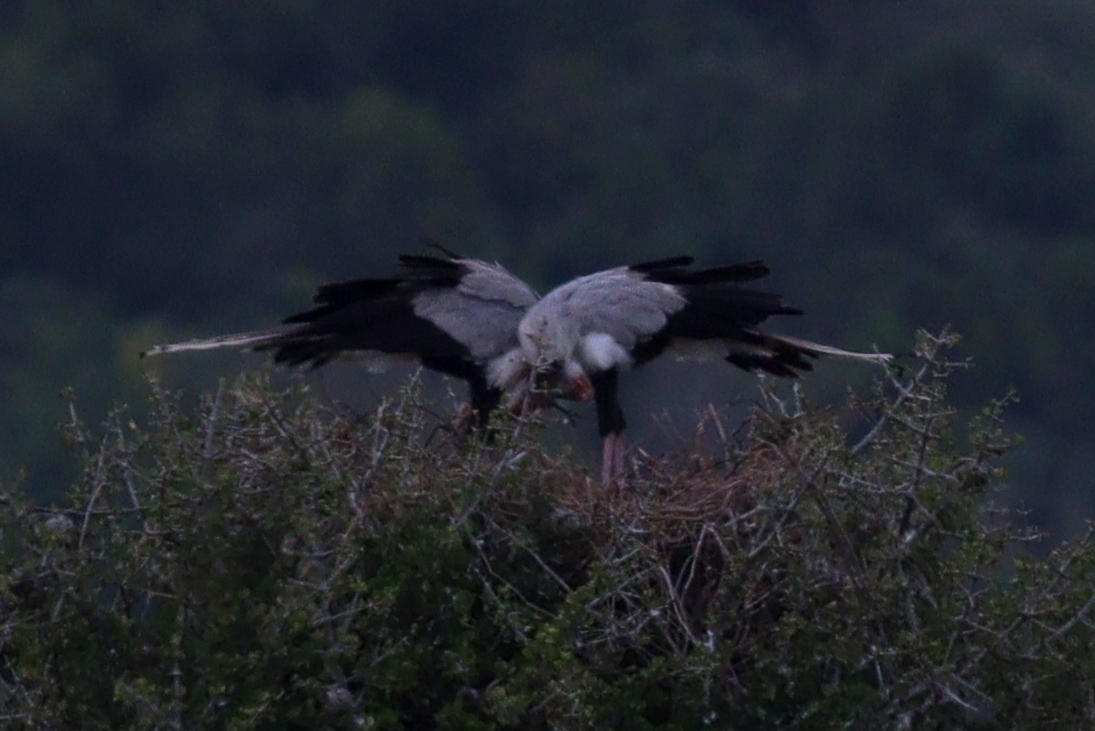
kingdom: Animalia
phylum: Chordata
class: Aves
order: Accipitriformes
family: Sagittariidae
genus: Sagittarius
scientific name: Sagittarius serpentarius
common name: Secretarybird
